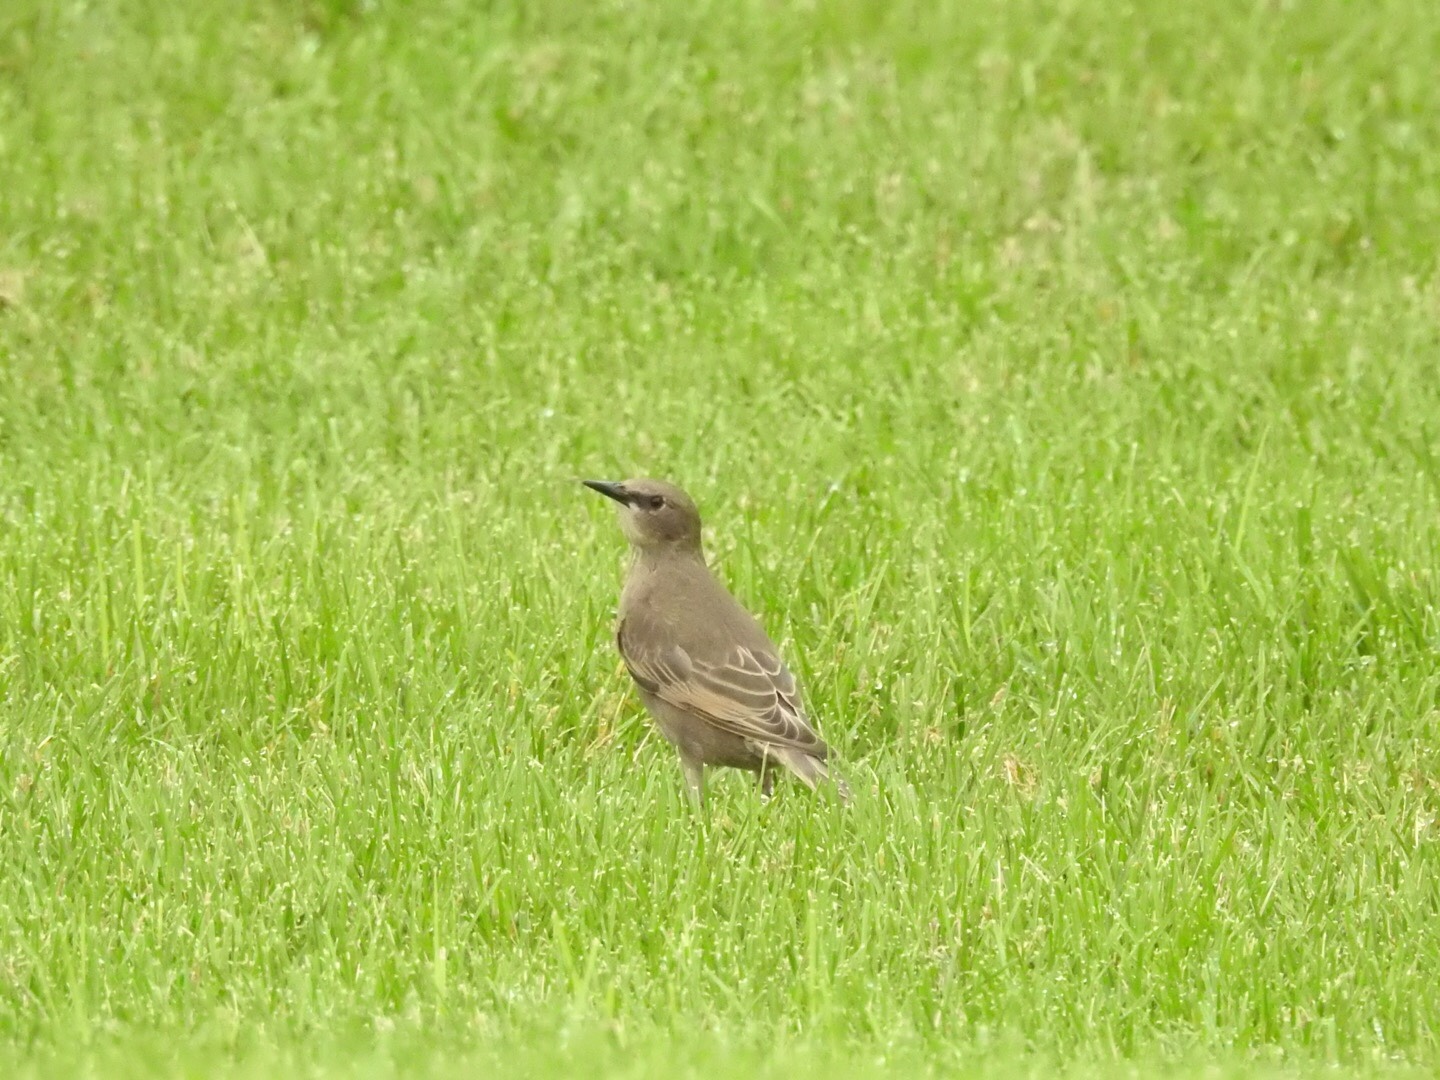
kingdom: Animalia
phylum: Chordata
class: Aves
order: Passeriformes
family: Sturnidae
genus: Sturnus
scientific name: Sturnus vulgaris
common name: Common starling
